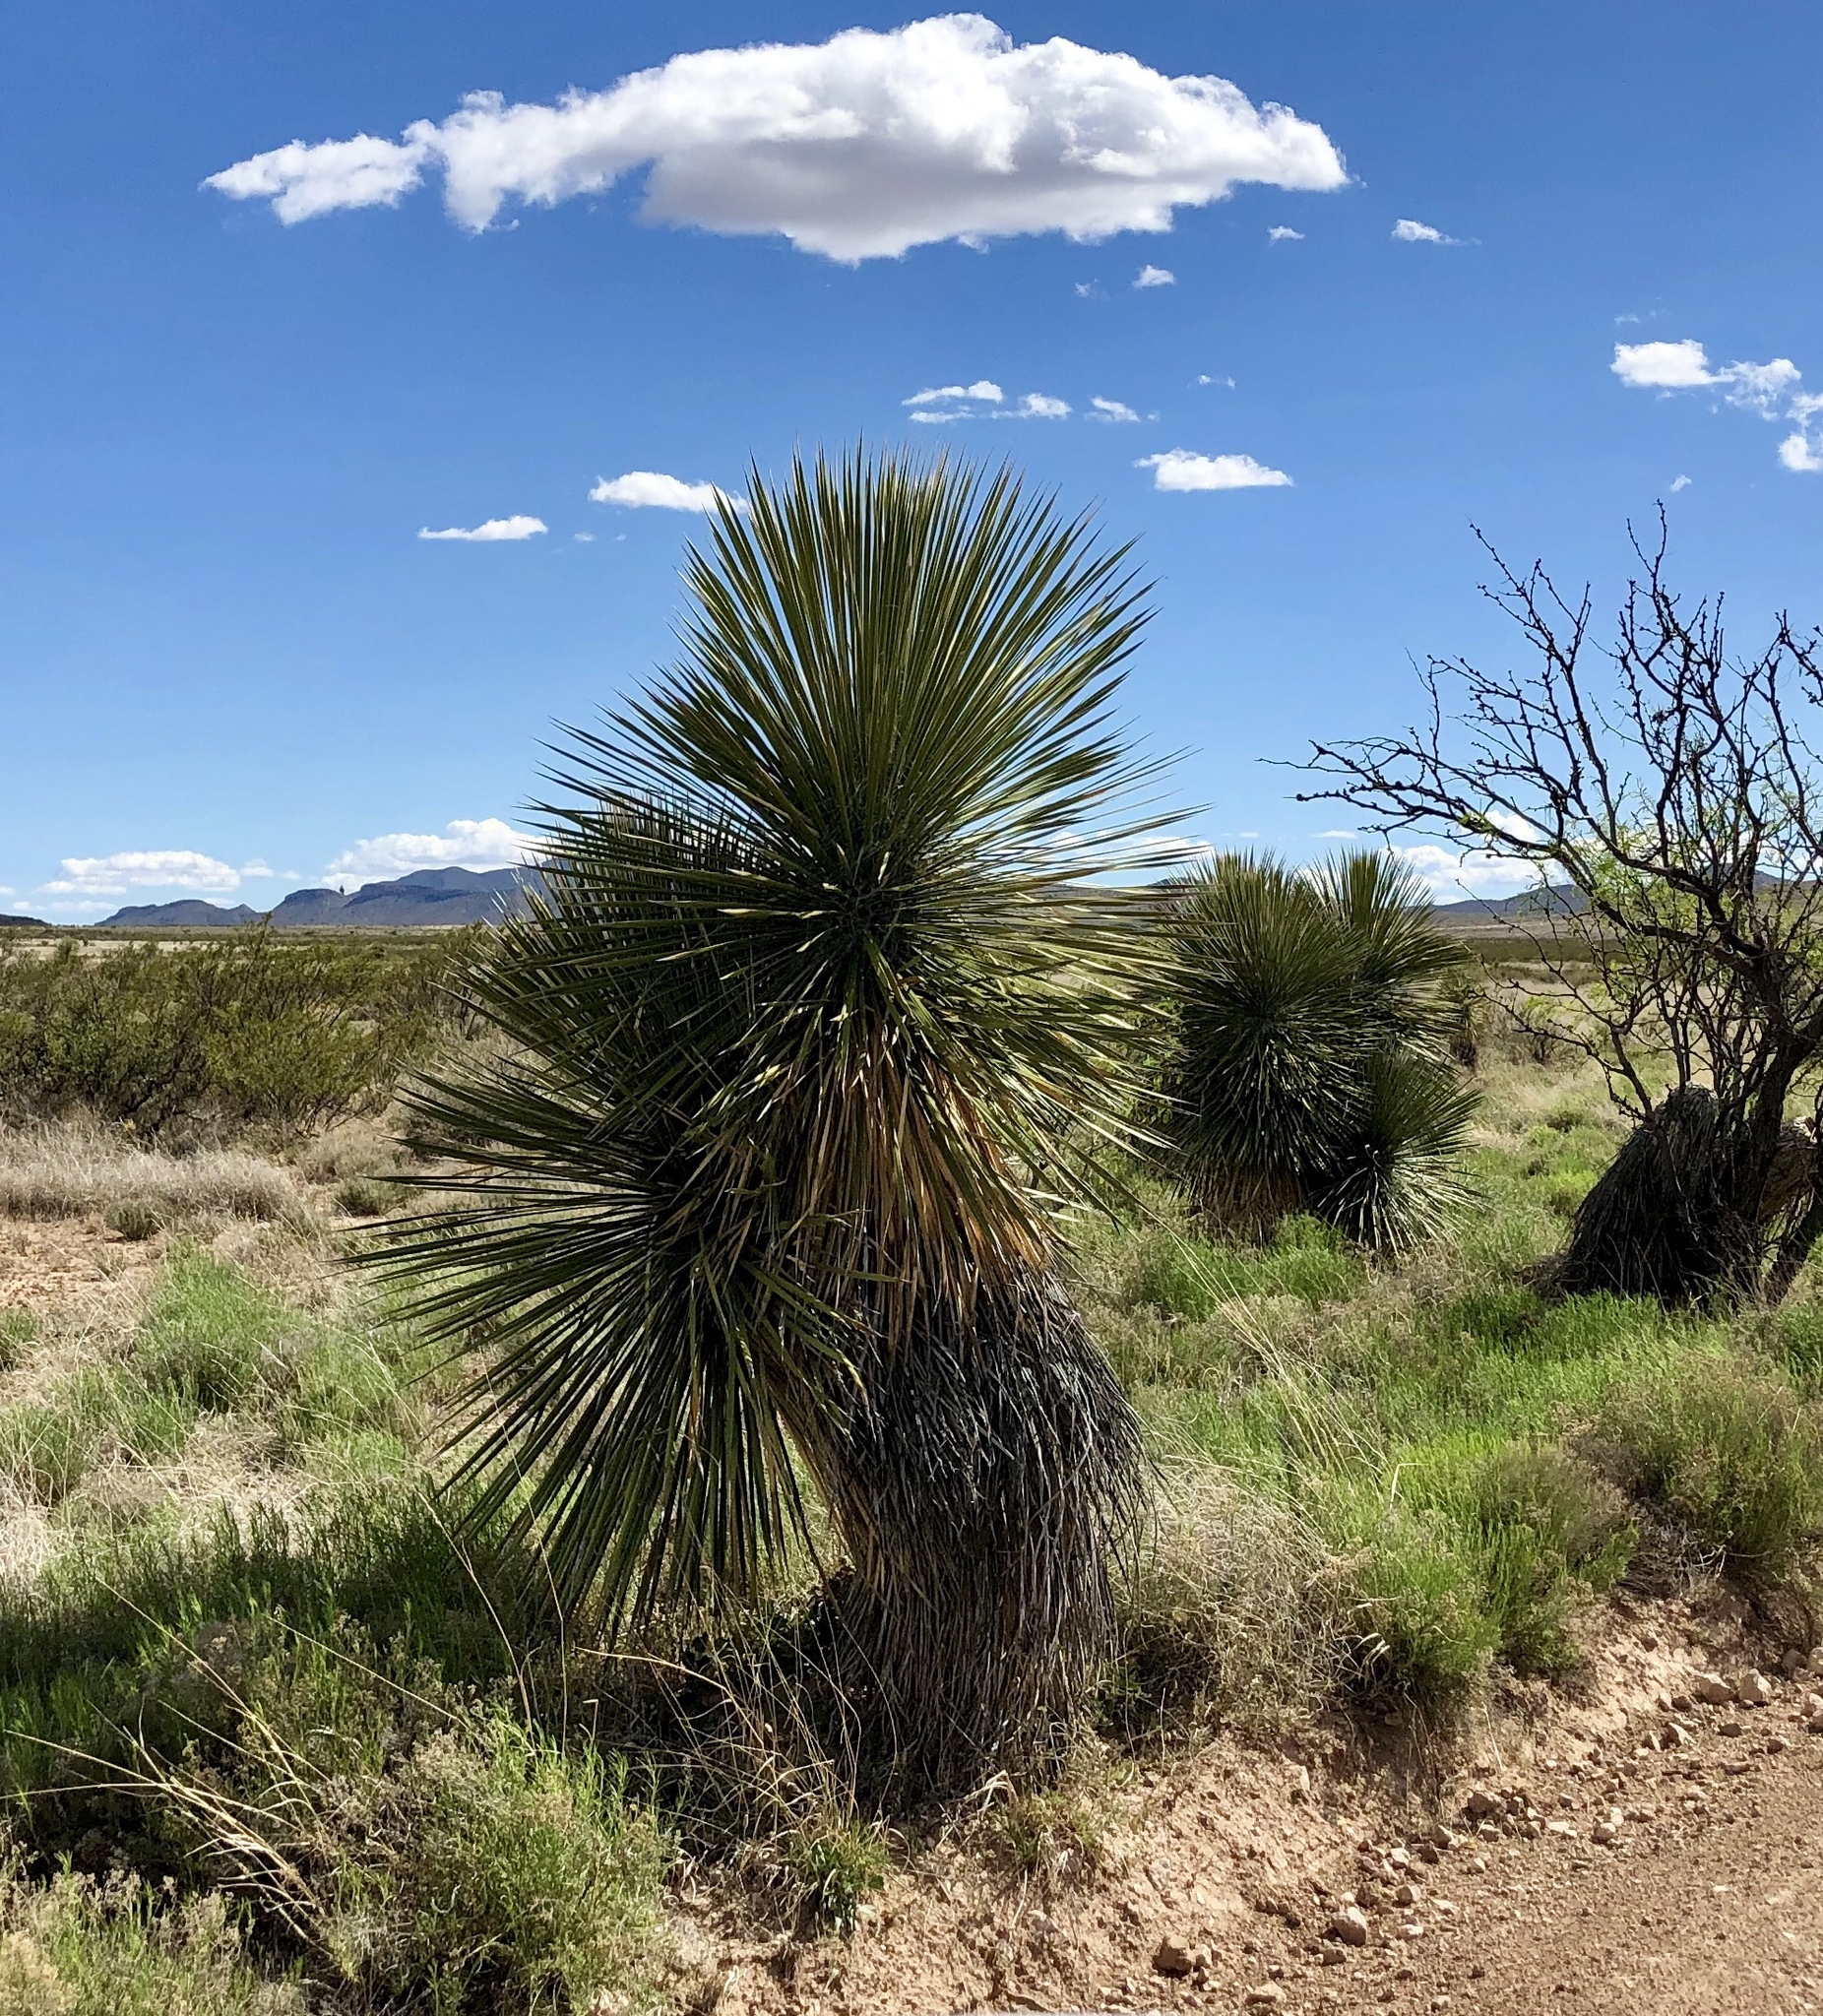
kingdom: Plantae
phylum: Tracheophyta
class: Liliopsida
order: Asparagales
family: Asparagaceae
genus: Yucca
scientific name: Yucca elata
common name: Palmella
